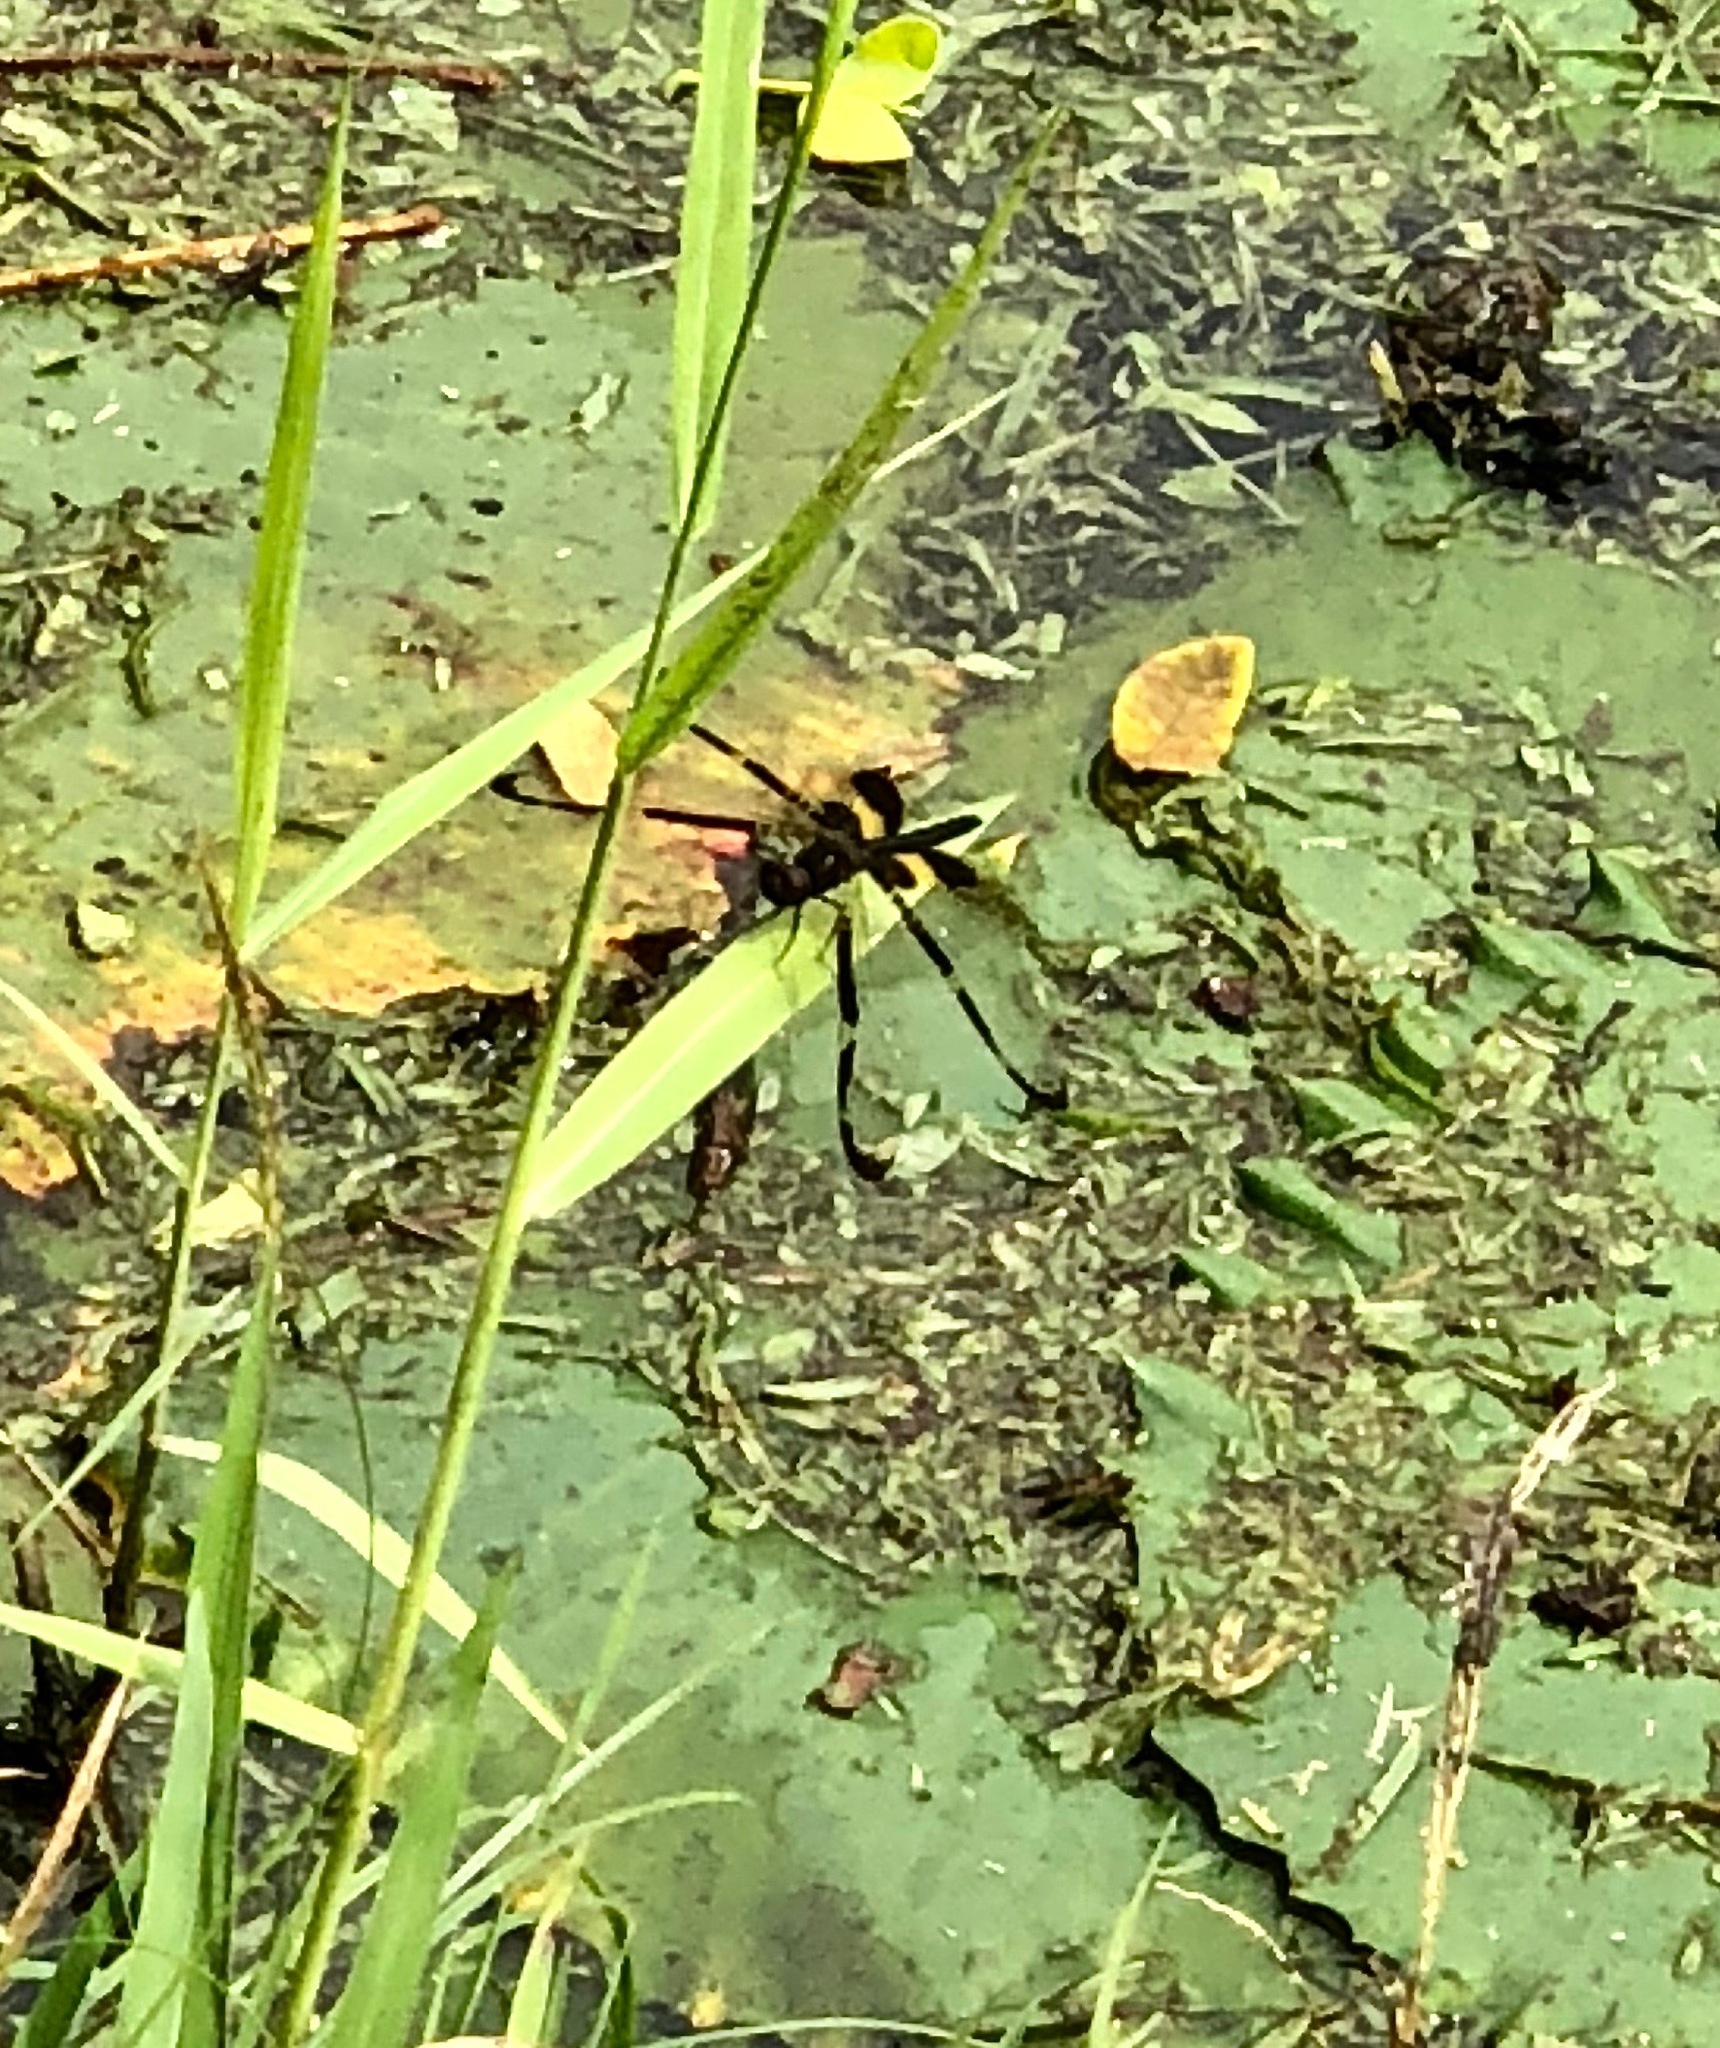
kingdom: Animalia
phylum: Arthropoda
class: Insecta
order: Odonata
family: Libellulidae
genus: Rhyothemis
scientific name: Rhyothemis phyllis
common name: Yellow-barred flutterer
